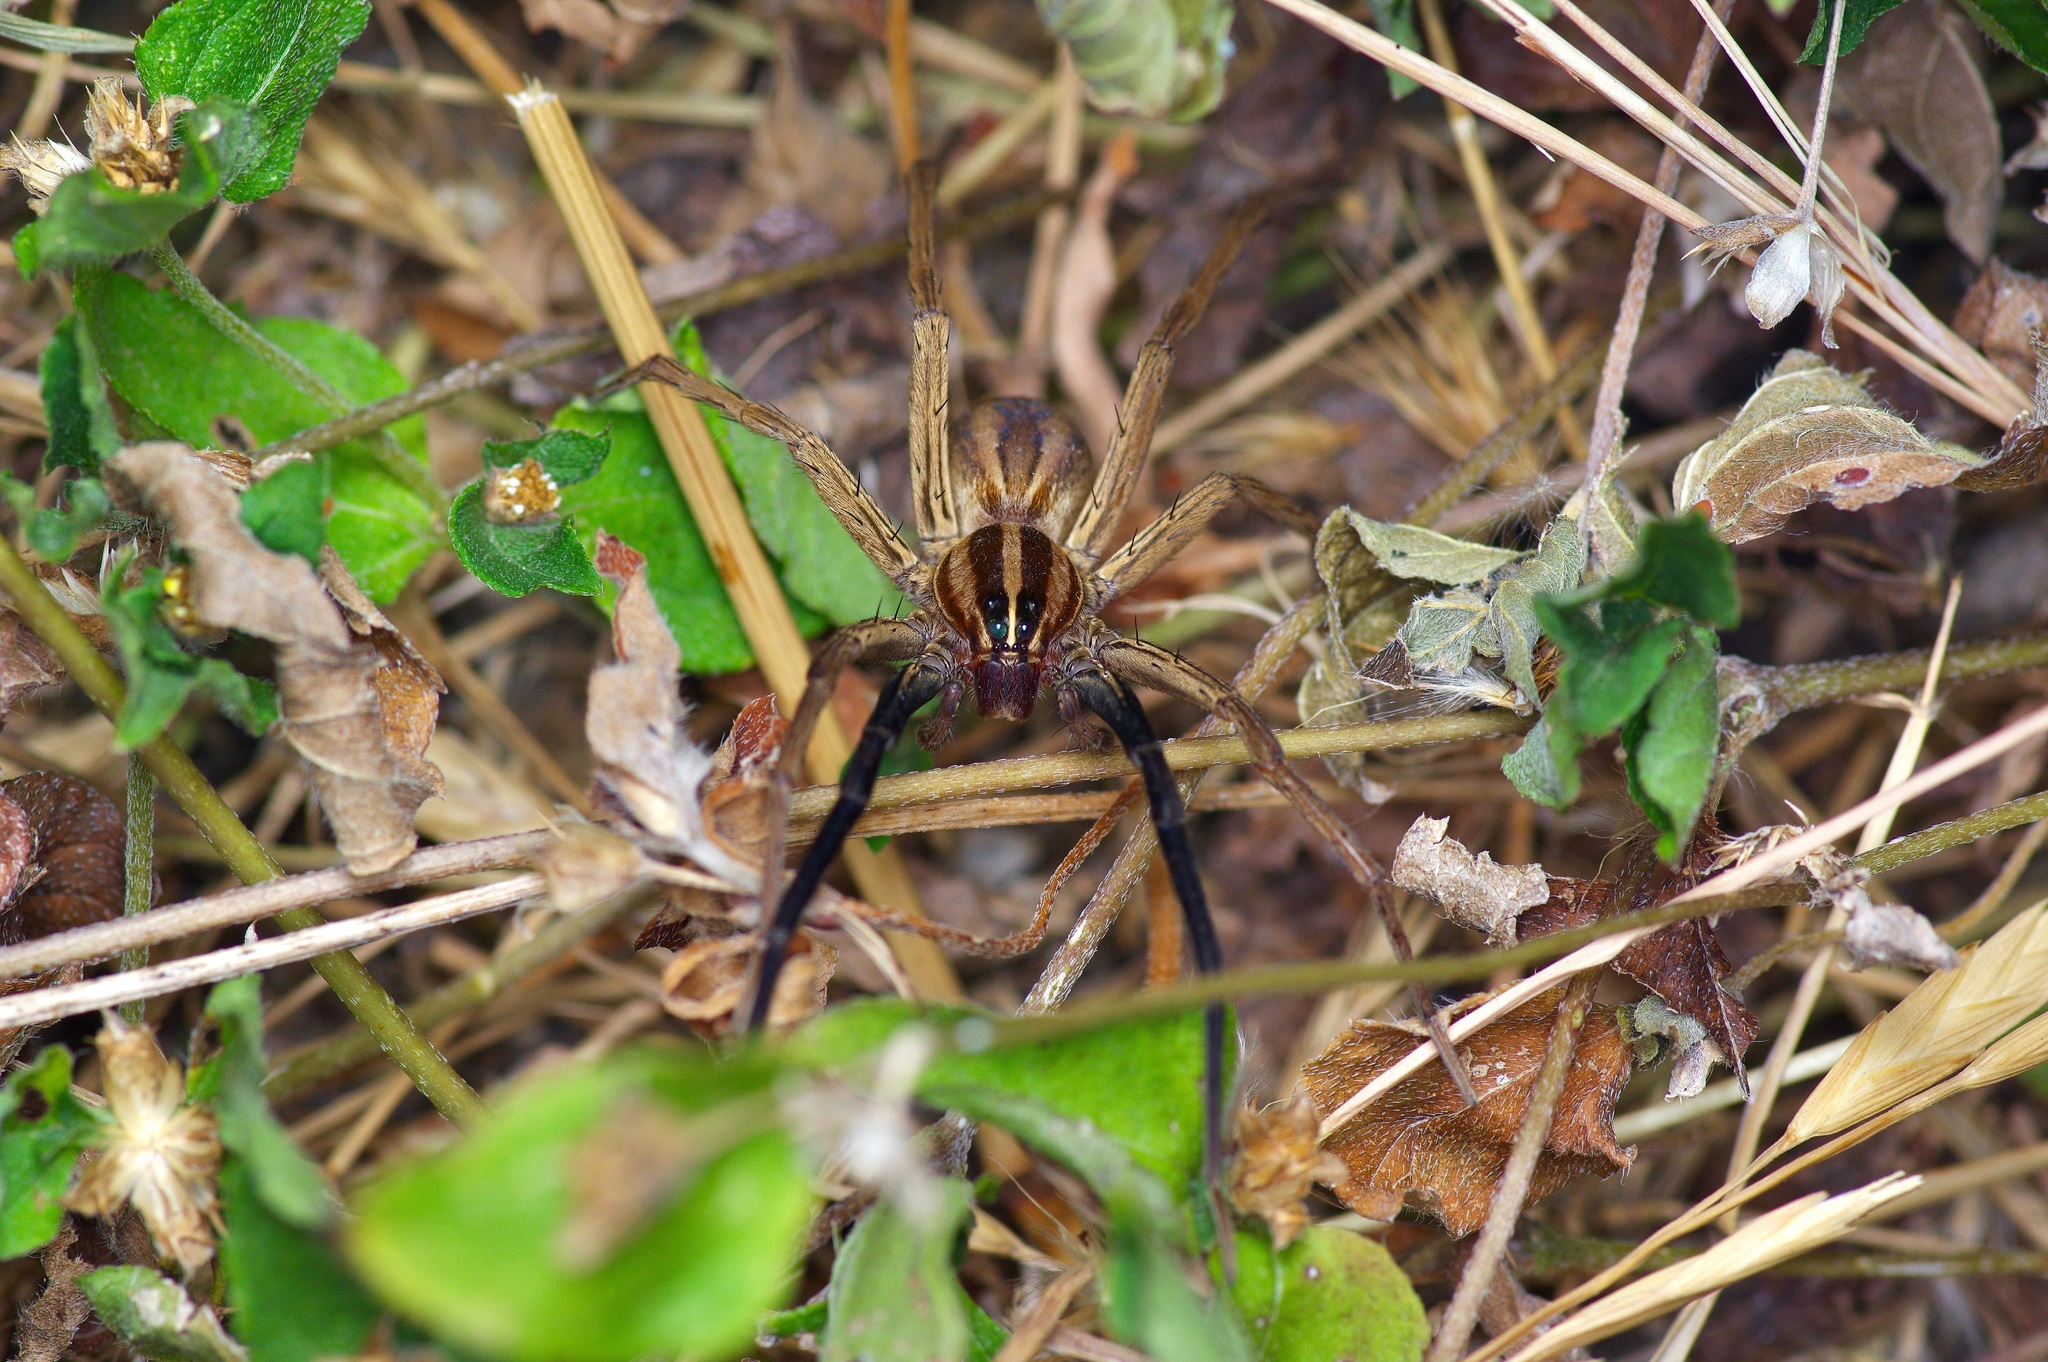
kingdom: Animalia
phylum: Arthropoda
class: Arachnida
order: Araneae
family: Lycosidae
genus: Rabidosa
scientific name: Rabidosa rabida
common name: Rabid wolf spider
